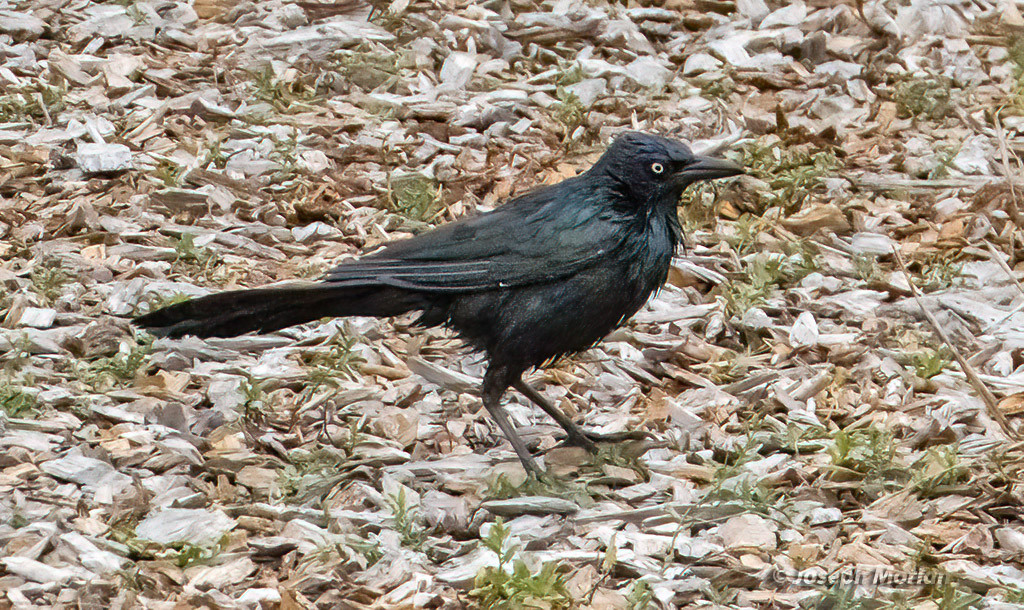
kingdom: Animalia
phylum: Chordata
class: Aves
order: Passeriformes
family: Icteridae
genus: Quiscalus
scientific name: Quiscalus mexicanus
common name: Great-tailed grackle
